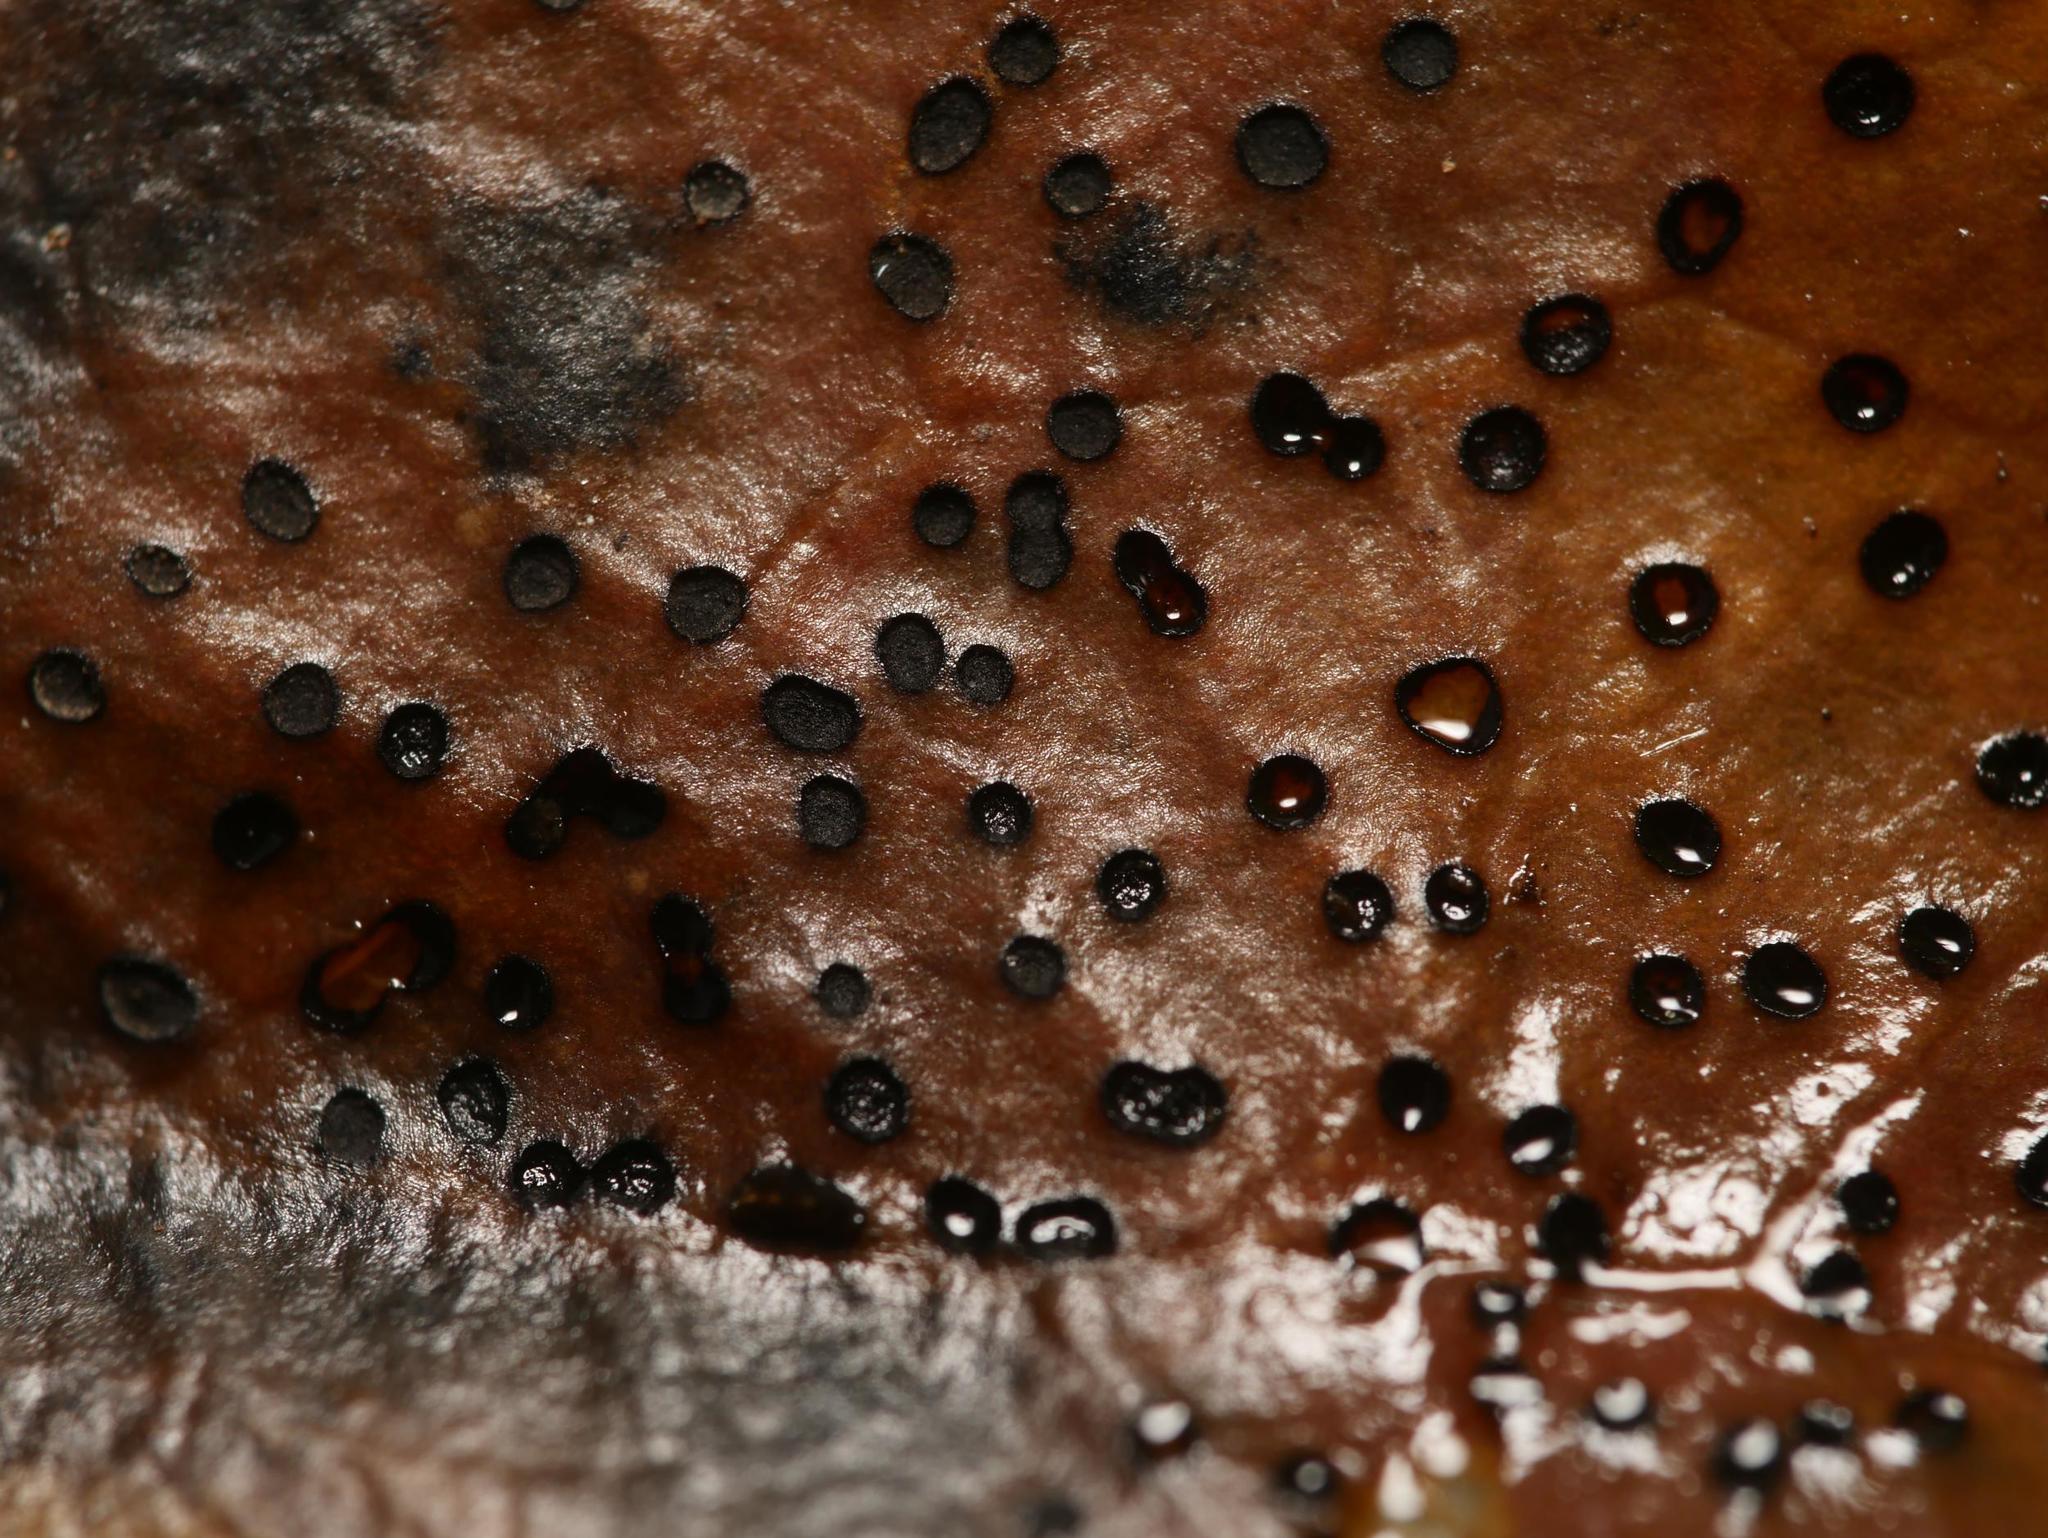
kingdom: Fungi
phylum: Ascomycota
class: Leotiomycetes
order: Helotiales
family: Cenangiaceae
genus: Trochila
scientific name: Trochila ilicina
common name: Holly speckle
